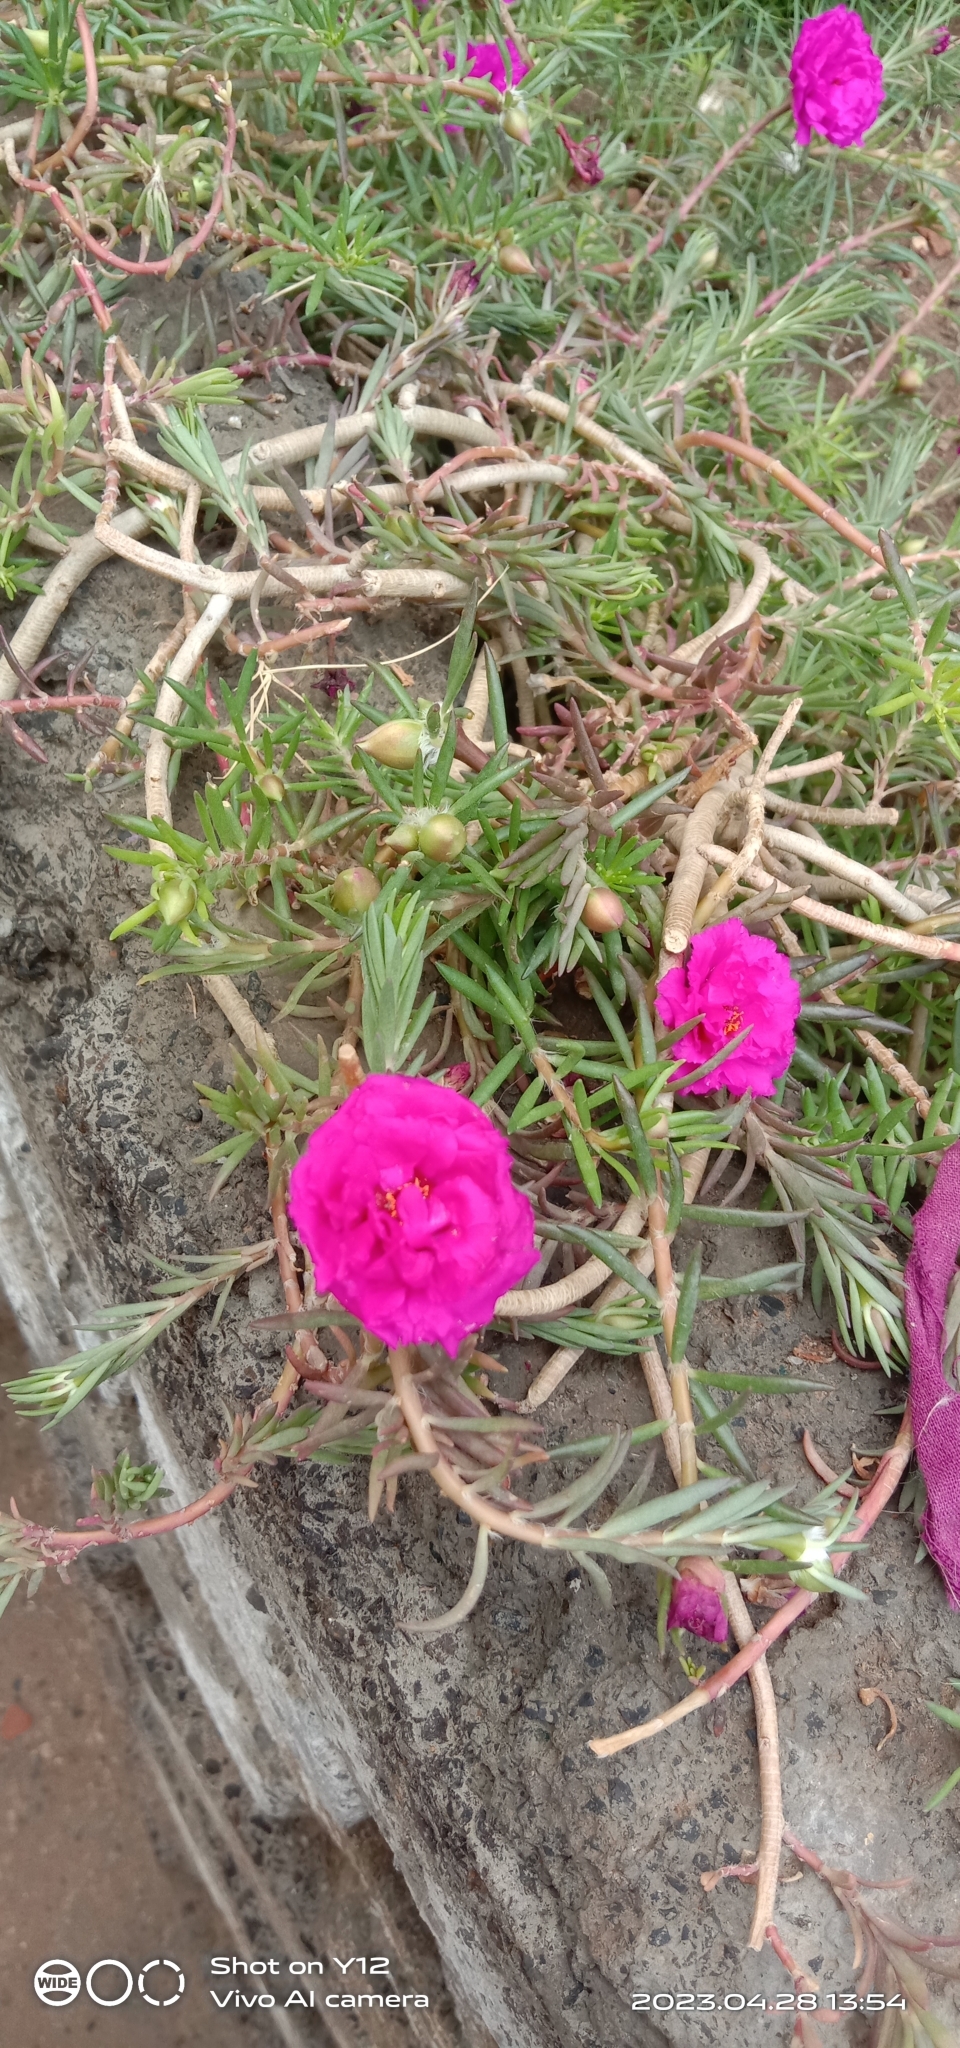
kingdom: Plantae
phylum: Tracheophyta
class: Magnoliopsida
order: Caryophyllales
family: Portulacaceae
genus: Portulaca
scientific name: Portulaca grandiflora
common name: Moss-rose
